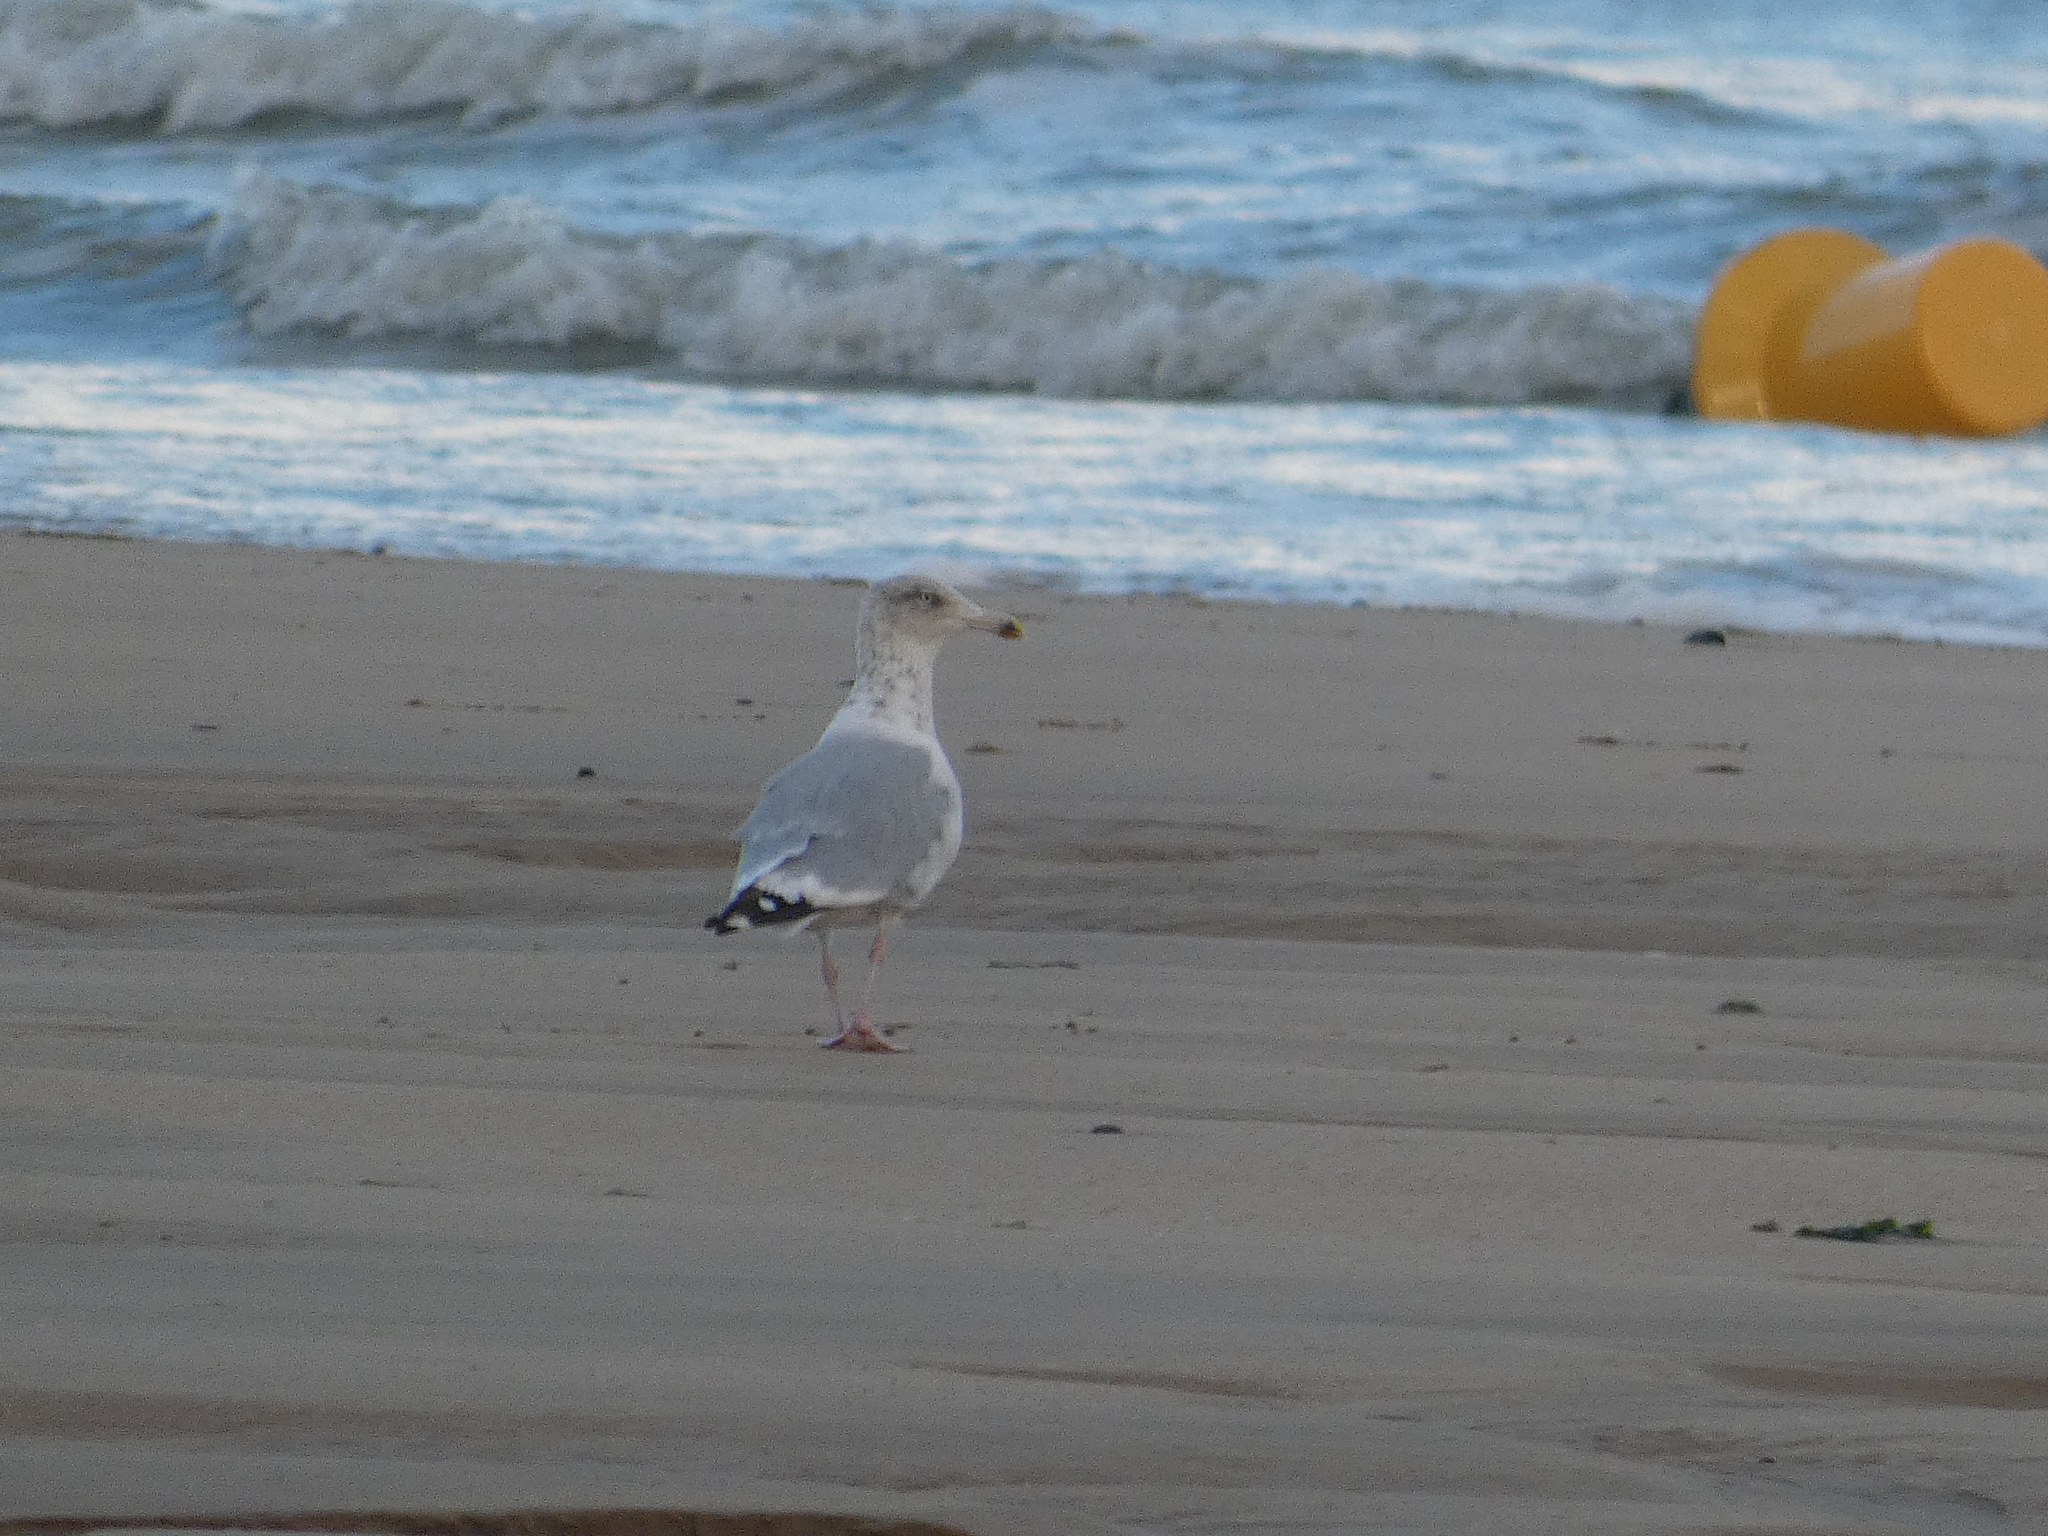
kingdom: Animalia
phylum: Chordata
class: Aves
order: Charadriiformes
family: Laridae
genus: Larus
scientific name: Larus argentatus
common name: Herring gull
